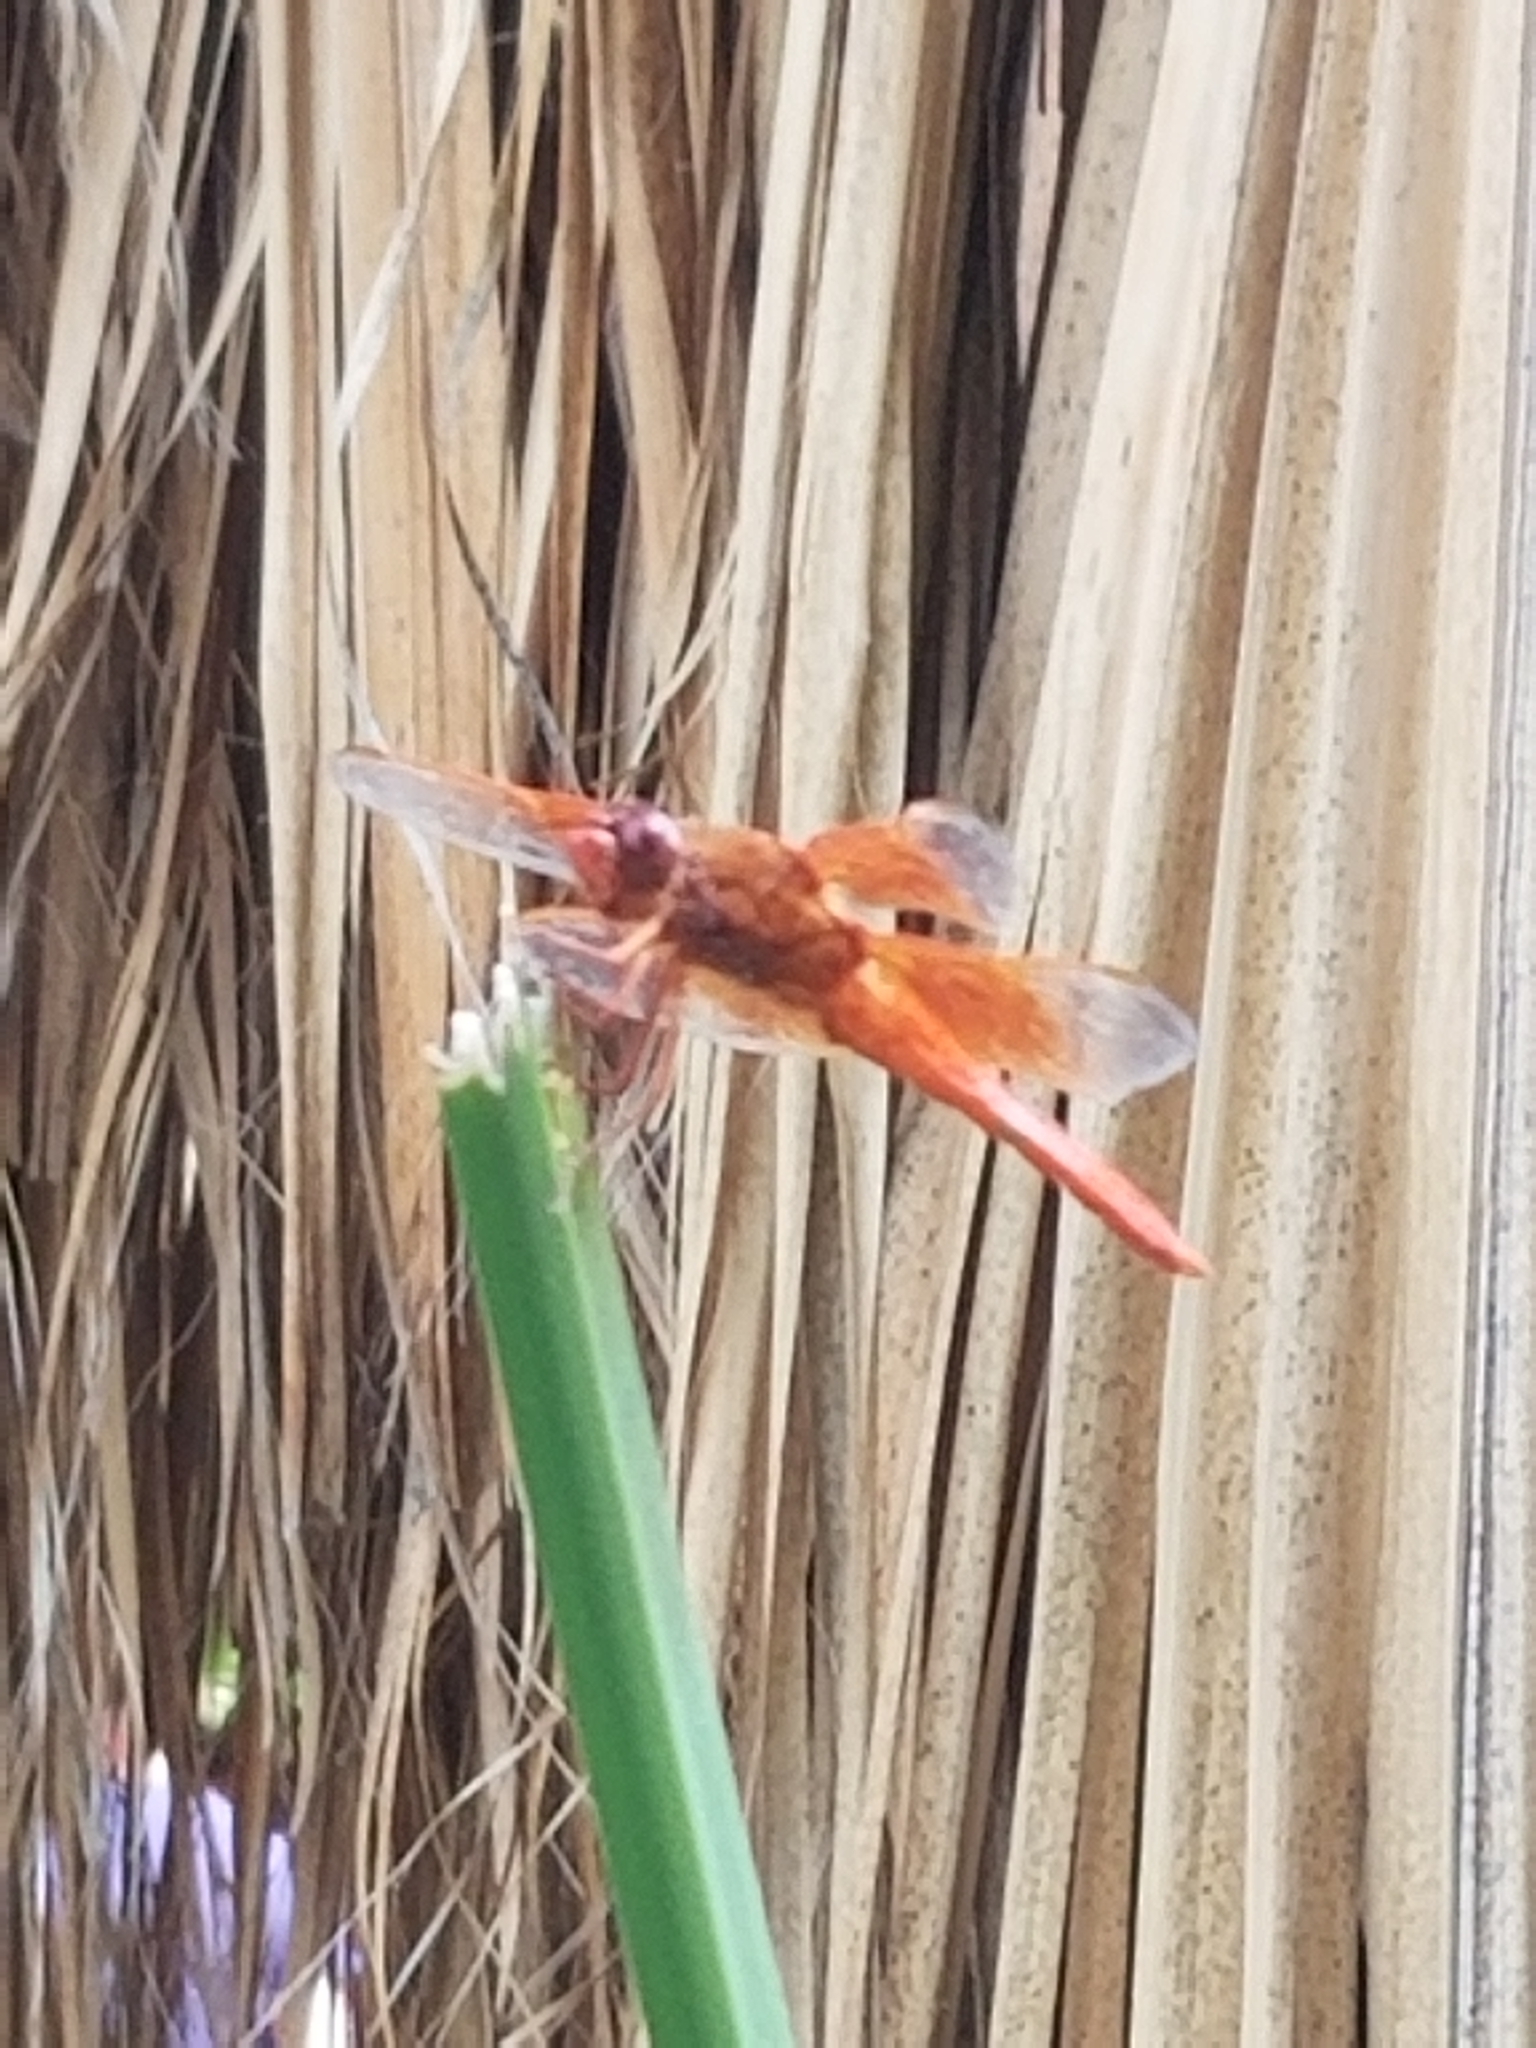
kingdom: Animalia
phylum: Arthropoda
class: Insecta
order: Odonata
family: Libellulidae
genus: Libellula
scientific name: Libellula saturata
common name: Flame skimmer
